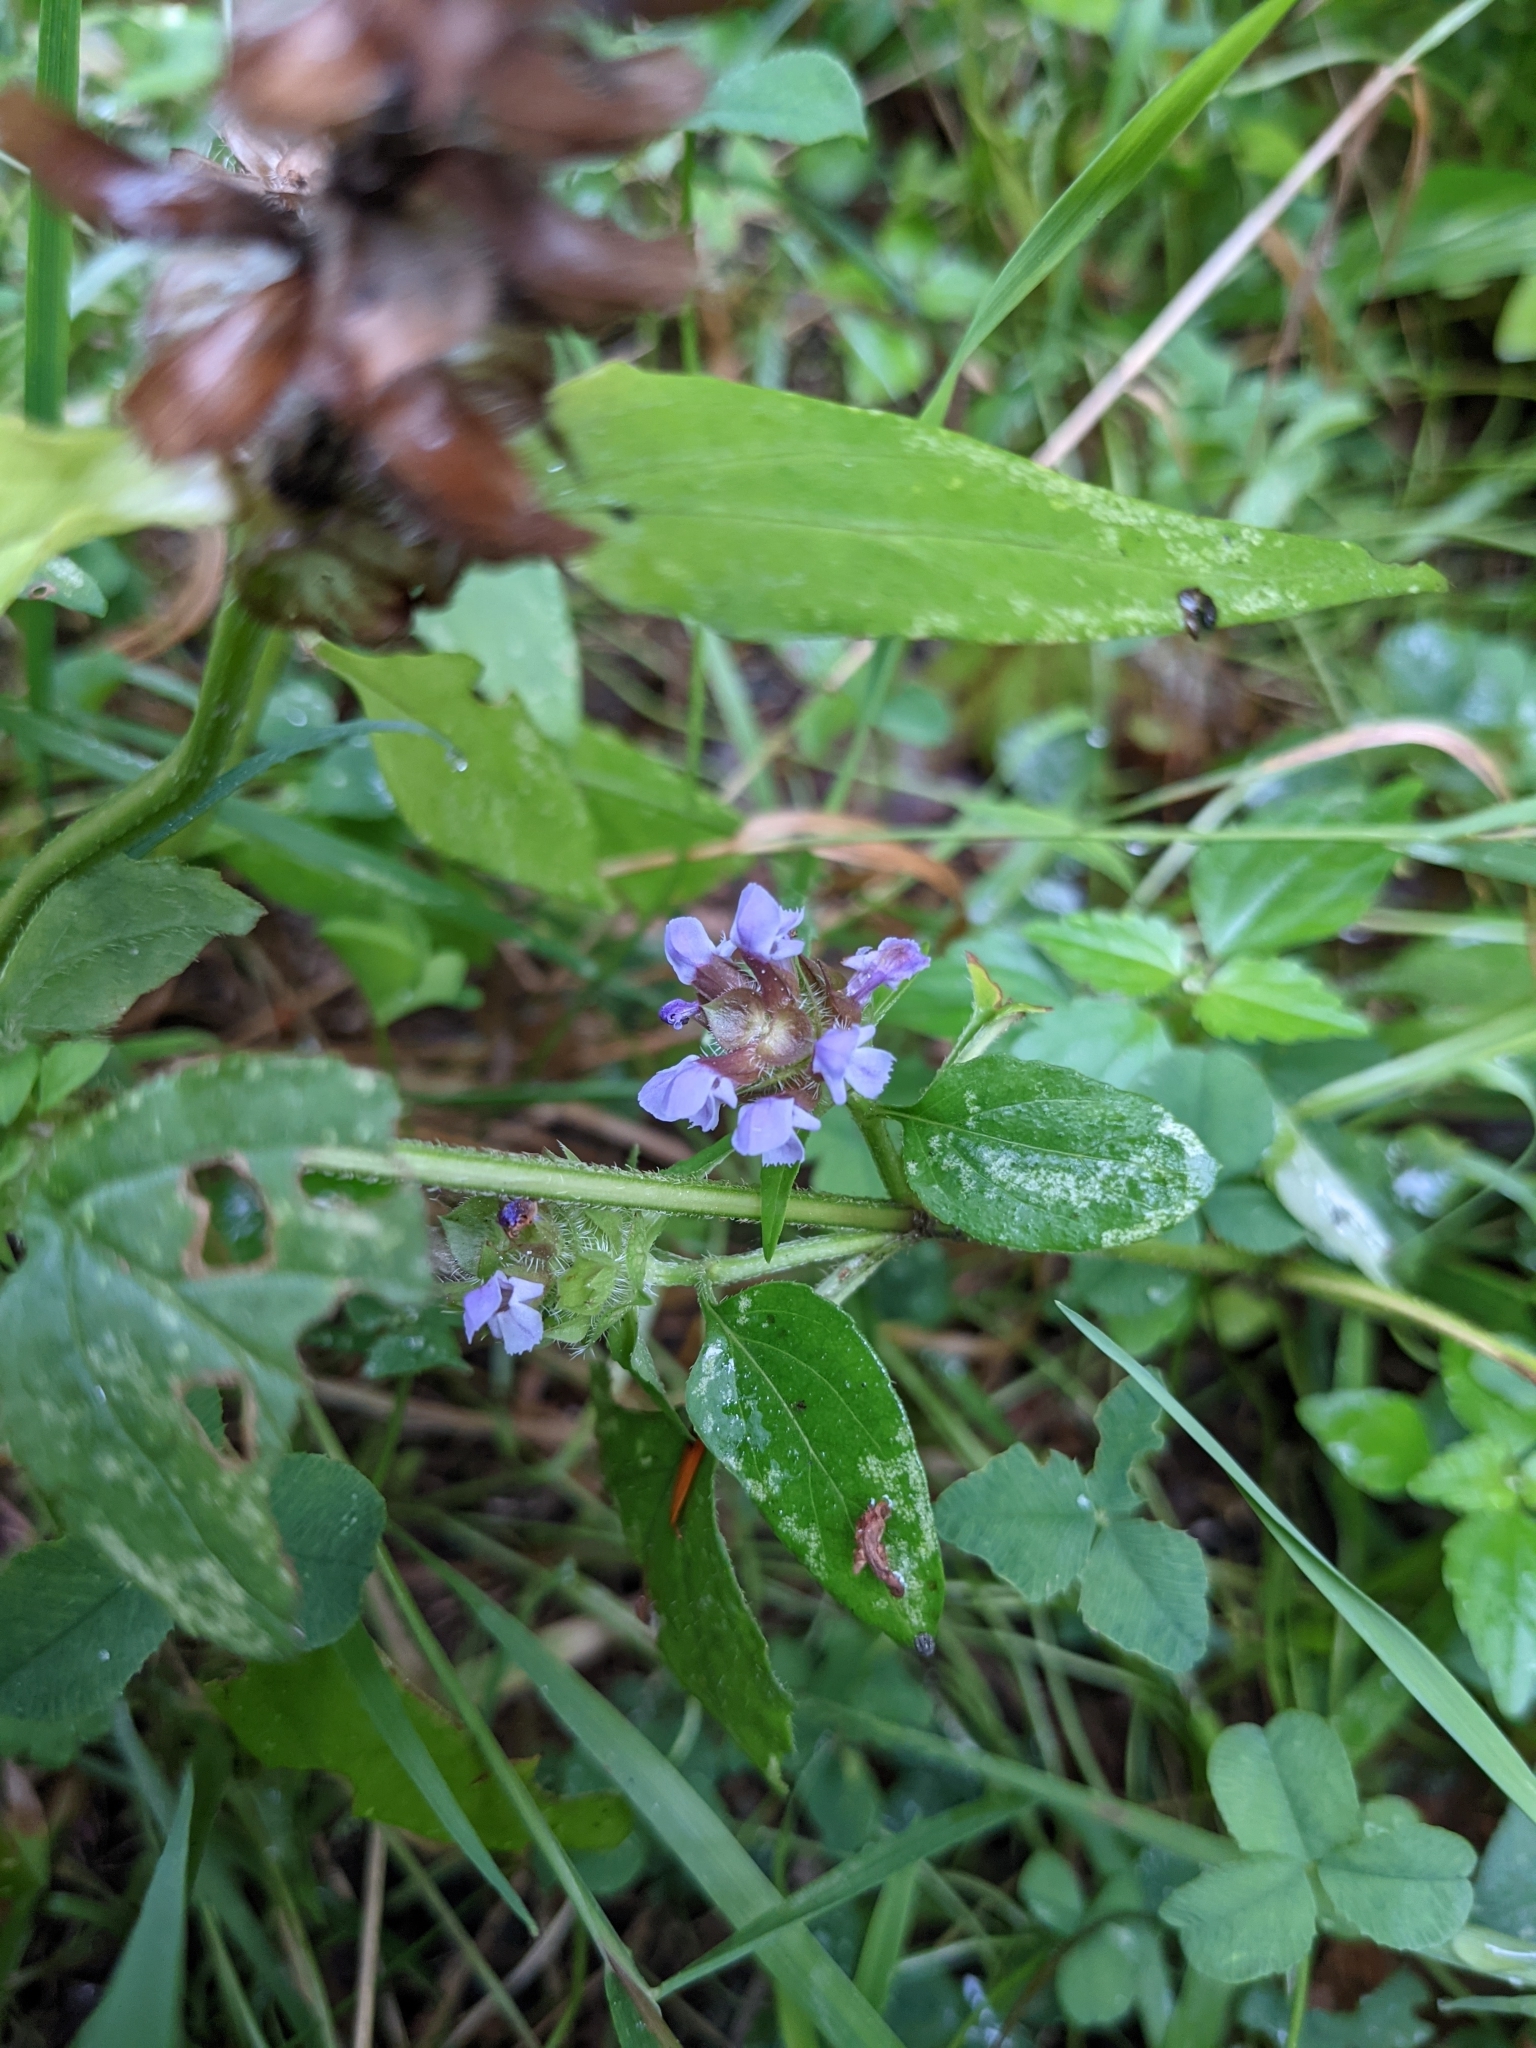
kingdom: Plantae
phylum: Tracheophyta
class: Magnoliopsida
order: Lamiales
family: Lamiaceae
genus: Prunella
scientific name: Prunella vulgaris
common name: Heal-all
